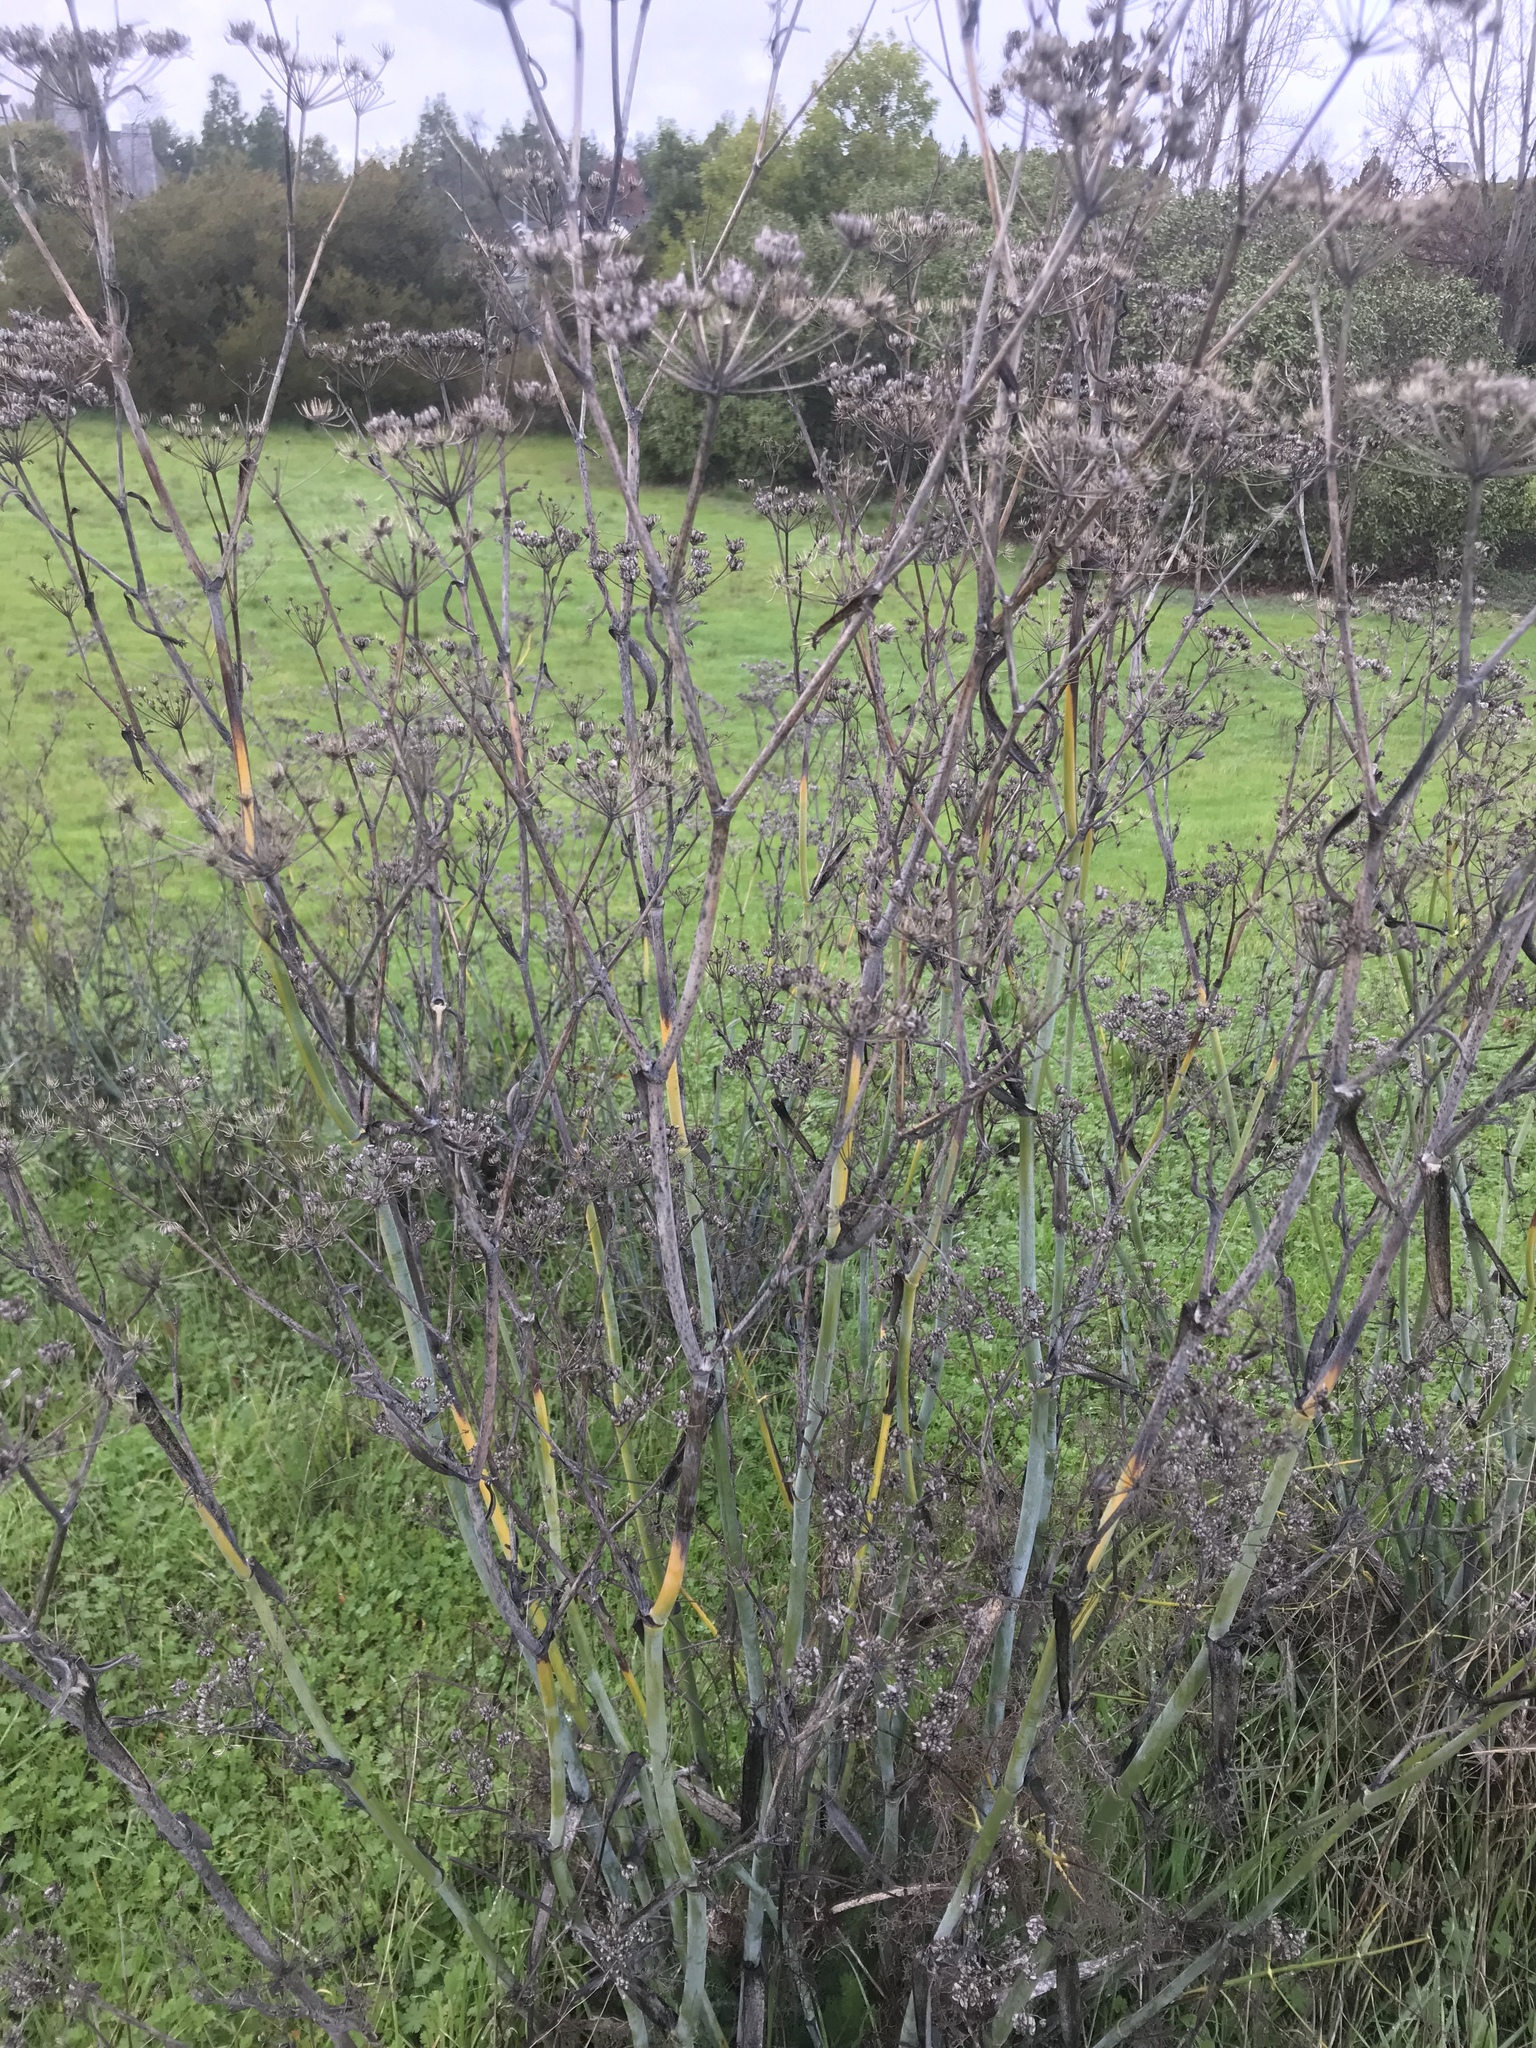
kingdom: Plantae
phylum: Tracheophyta
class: Magnoliopsida
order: Apiales
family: Apiaceae
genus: Foeniculum
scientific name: Foeniculum vulgare
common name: Fennel
